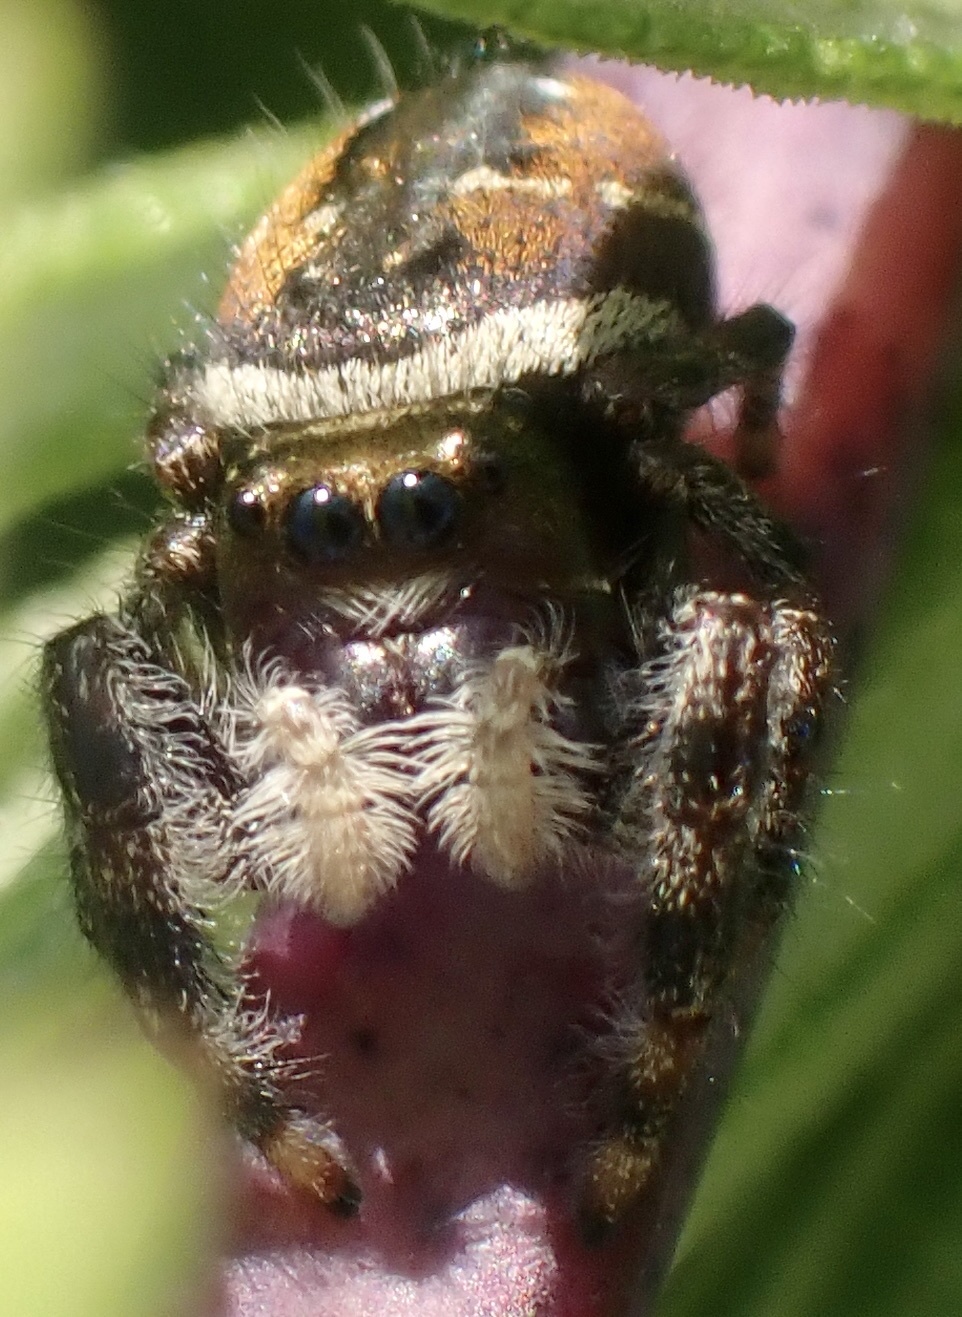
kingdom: Animalia
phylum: Arthropoda
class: Arachnida
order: Araneae
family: Salticidae
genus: Phidippus
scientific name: Phidippus clarus
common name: Brilliant jumping spider
